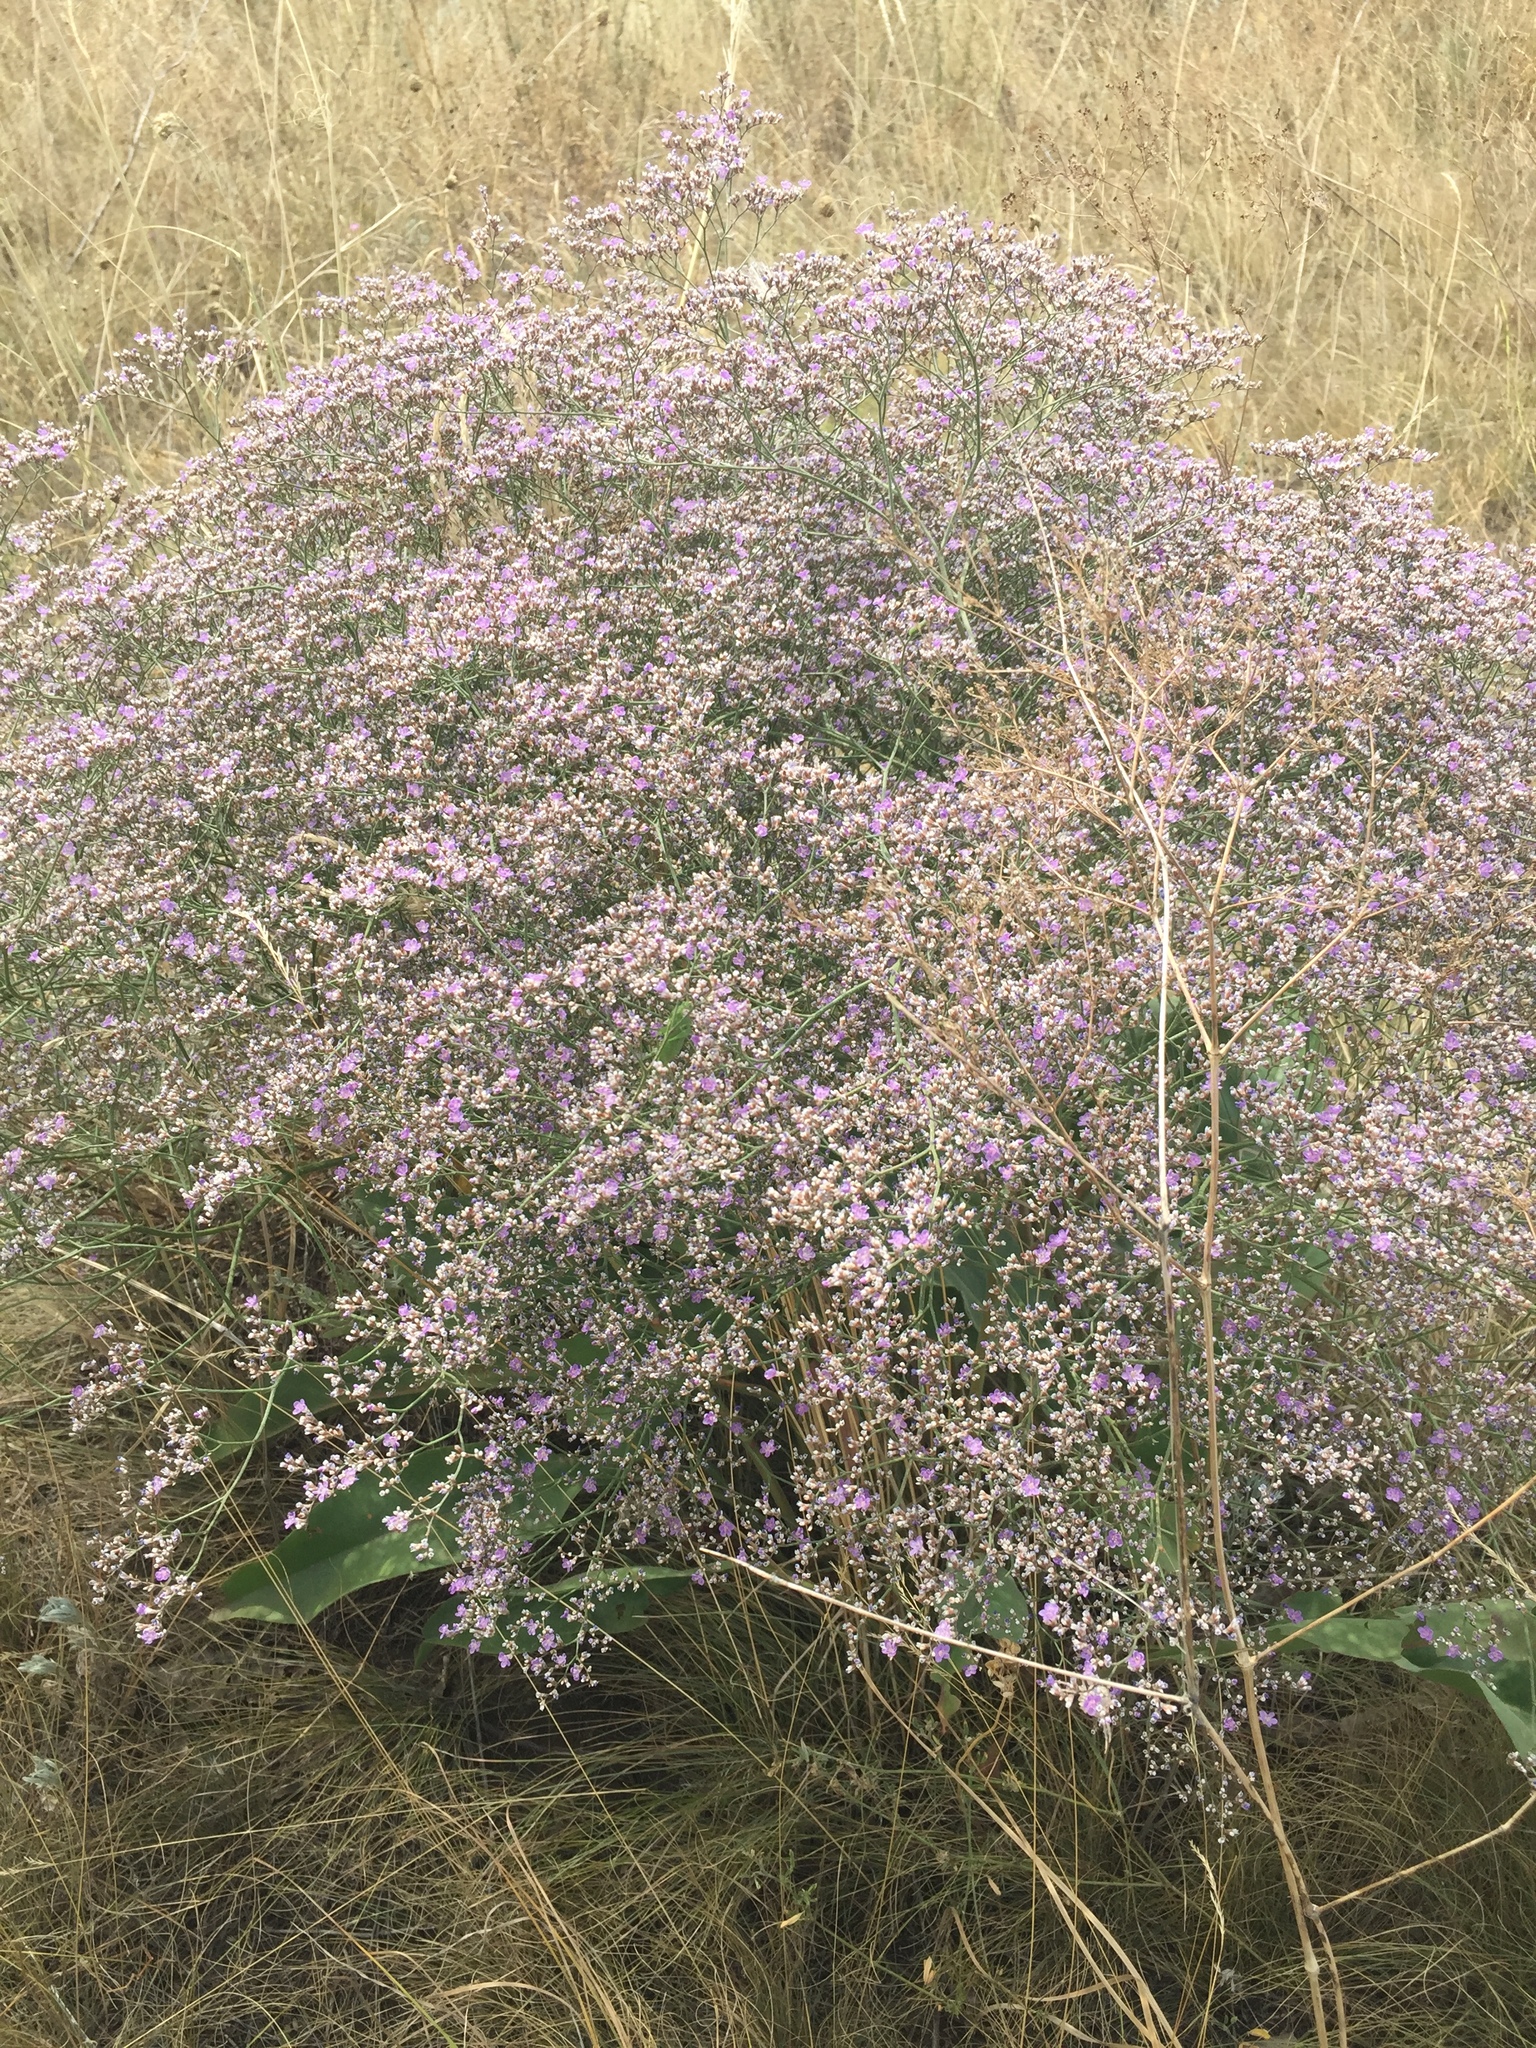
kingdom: Plantae
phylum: Tracheophyta
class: Magnoliopsida
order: Caryophyllales
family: Plumbaginaceae
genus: Limonium
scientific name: Limonium platyphyllum
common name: Florist's sea lavender
